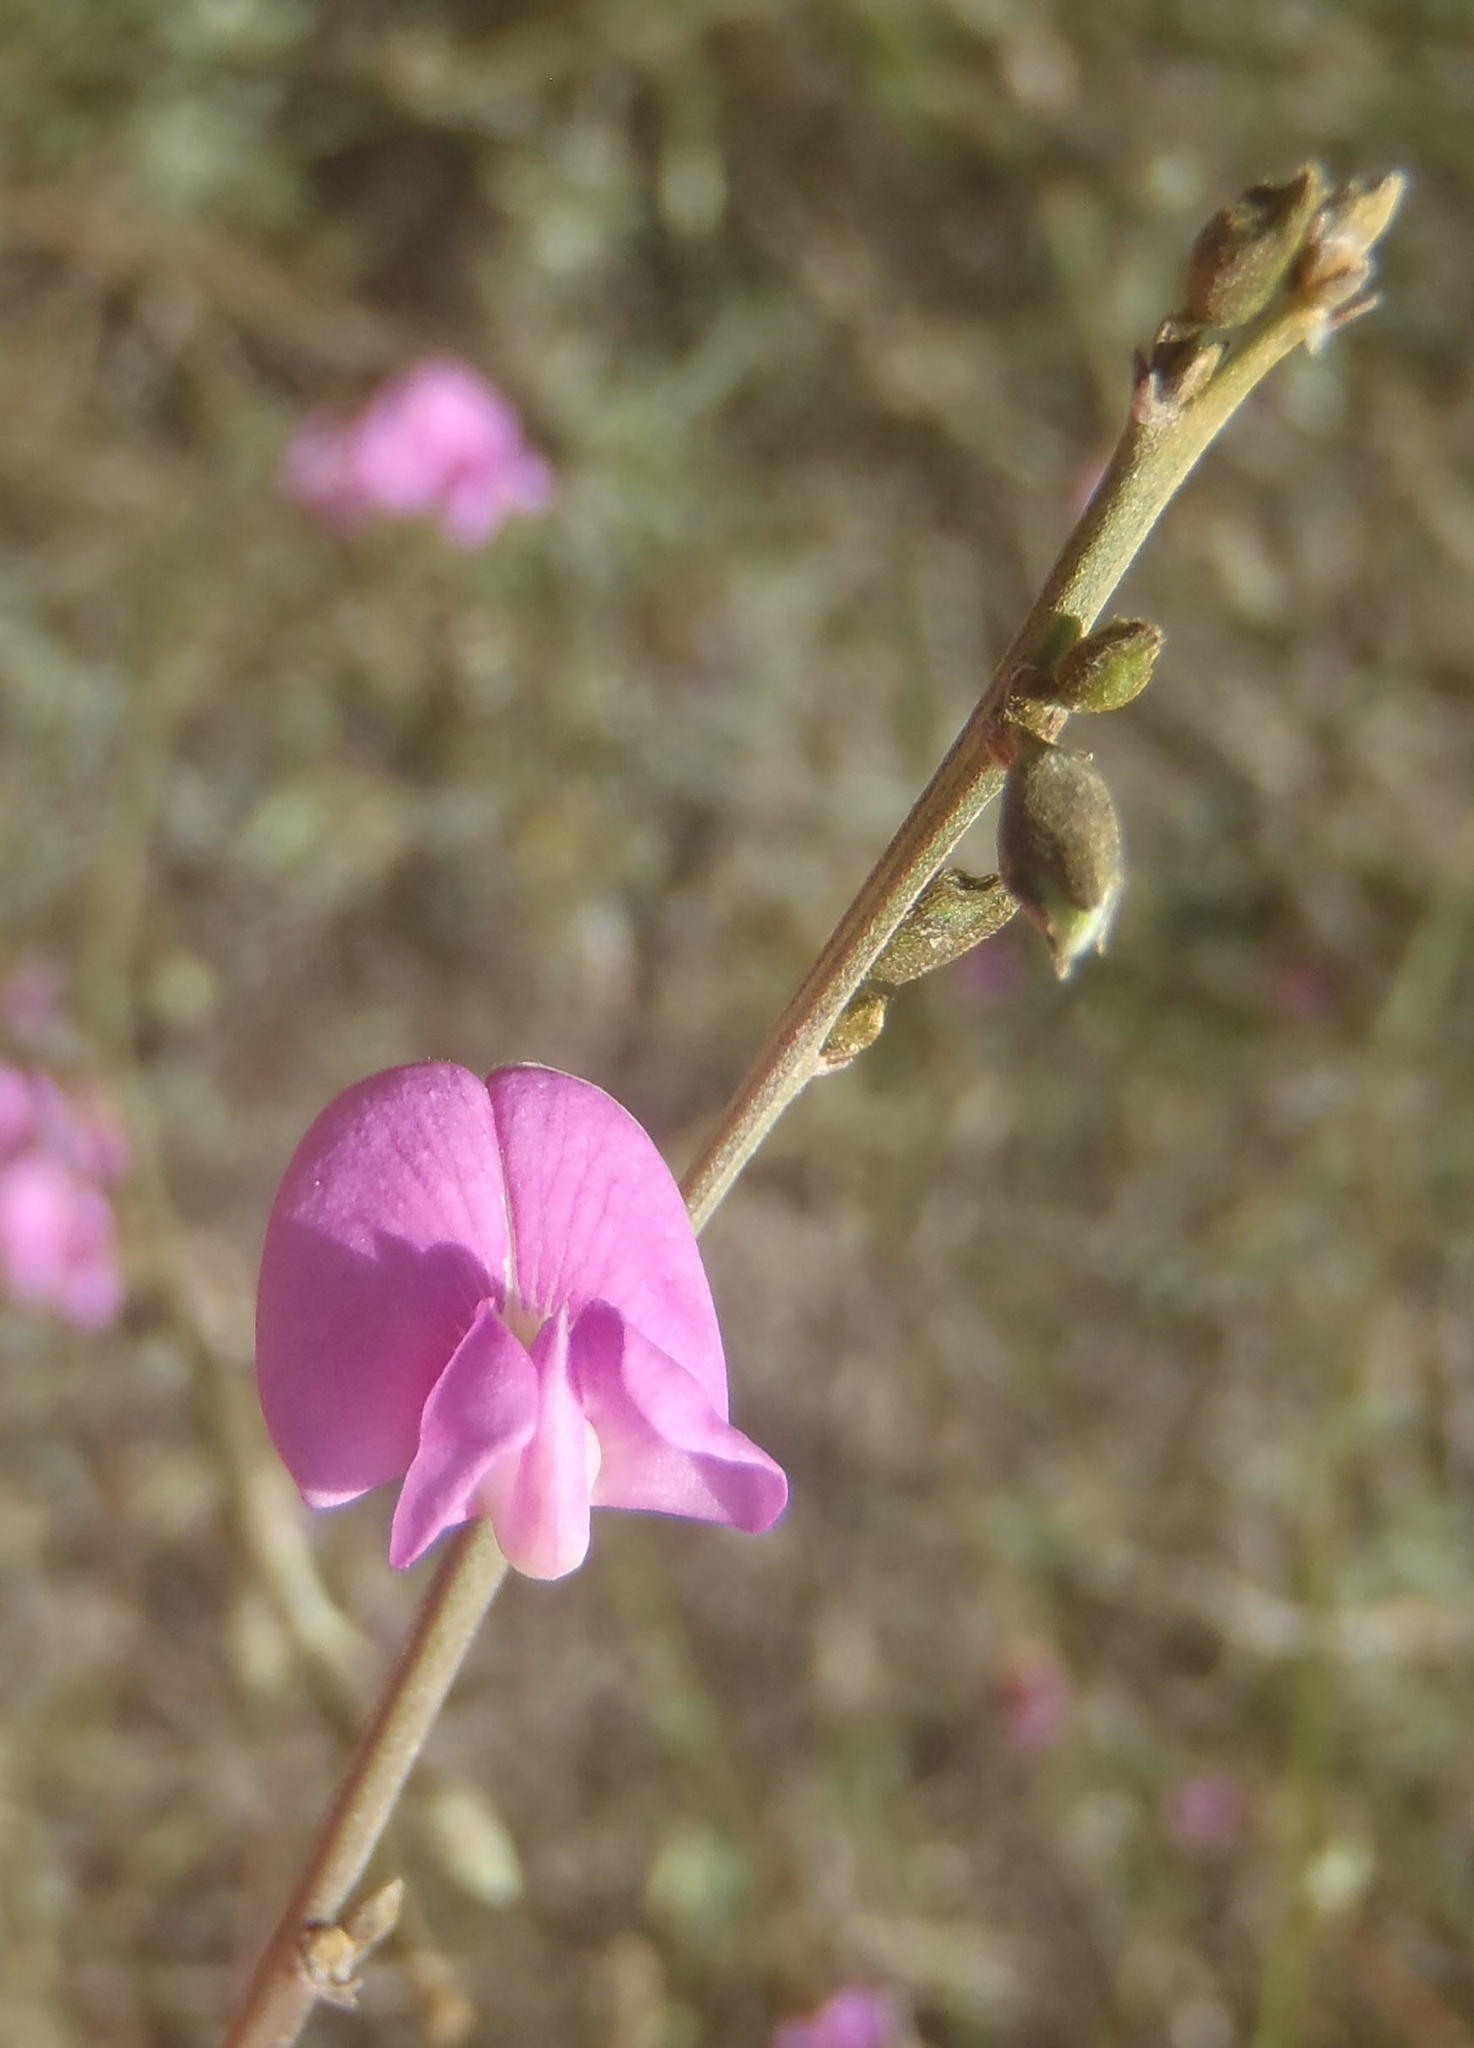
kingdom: Plantae
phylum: Tracheophyta
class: Magnoliopsida
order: Fabales
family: Fabaceae
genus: Tephrosia
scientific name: Tephrosia capensis
